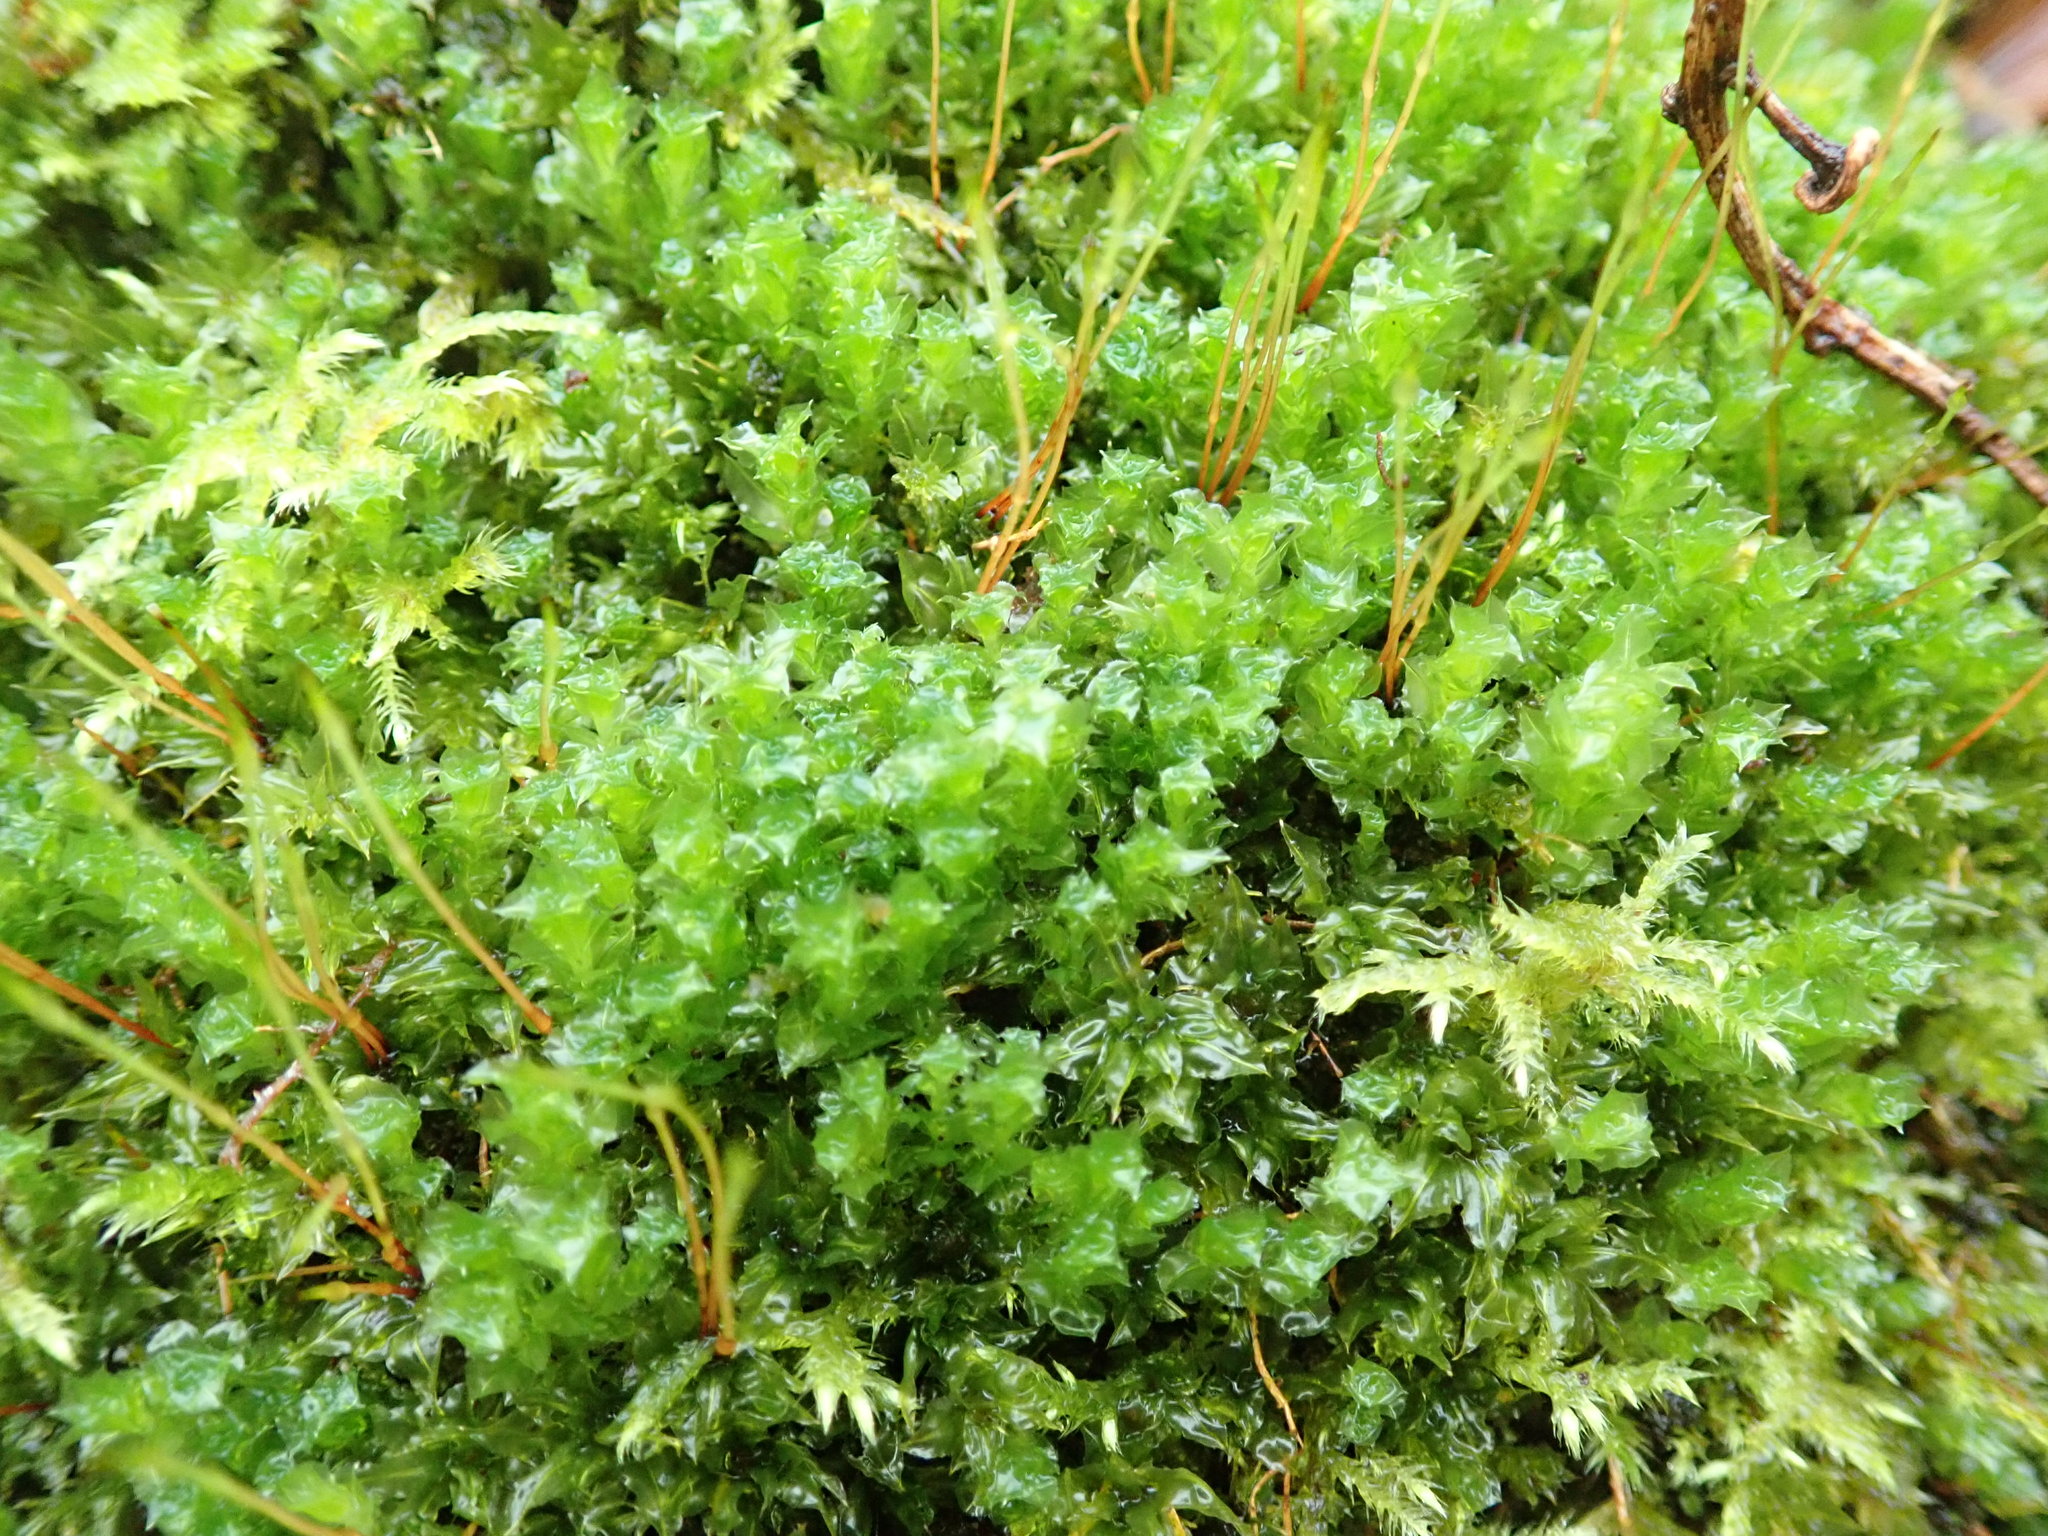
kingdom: Plantae
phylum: Bryophyta
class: Bryopsida
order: Bryales
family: Mniaceae
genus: Plagiomnium
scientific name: Plagiomnium venustum
